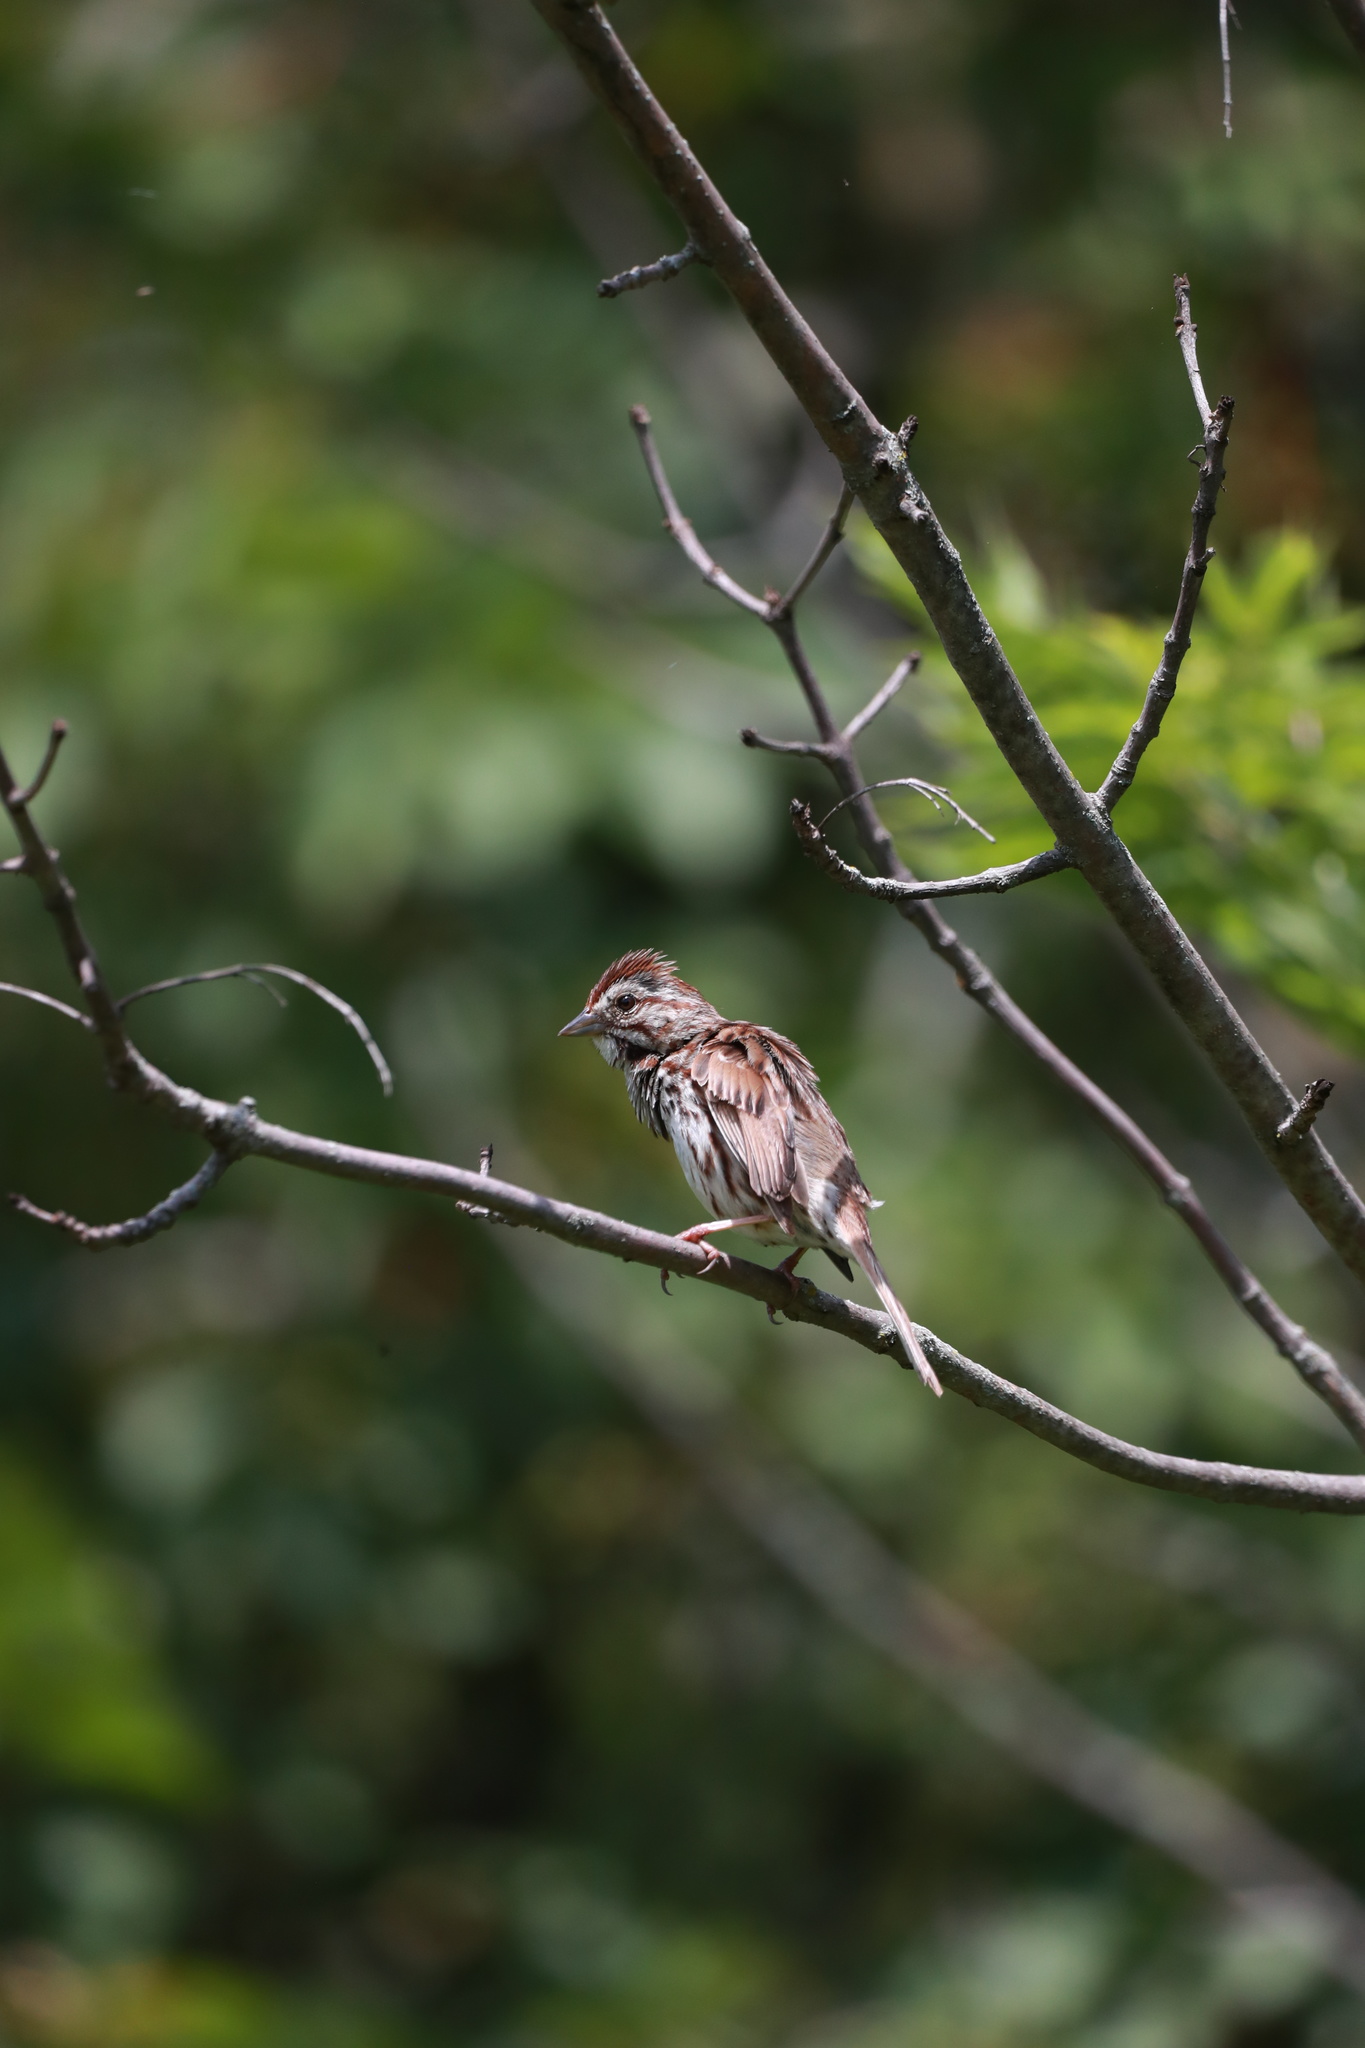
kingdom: Animalia
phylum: Chordata
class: Aves
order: Passeriformes
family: Passerellidae
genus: Melospiza
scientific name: Melospiza melodia
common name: Song sparrow
